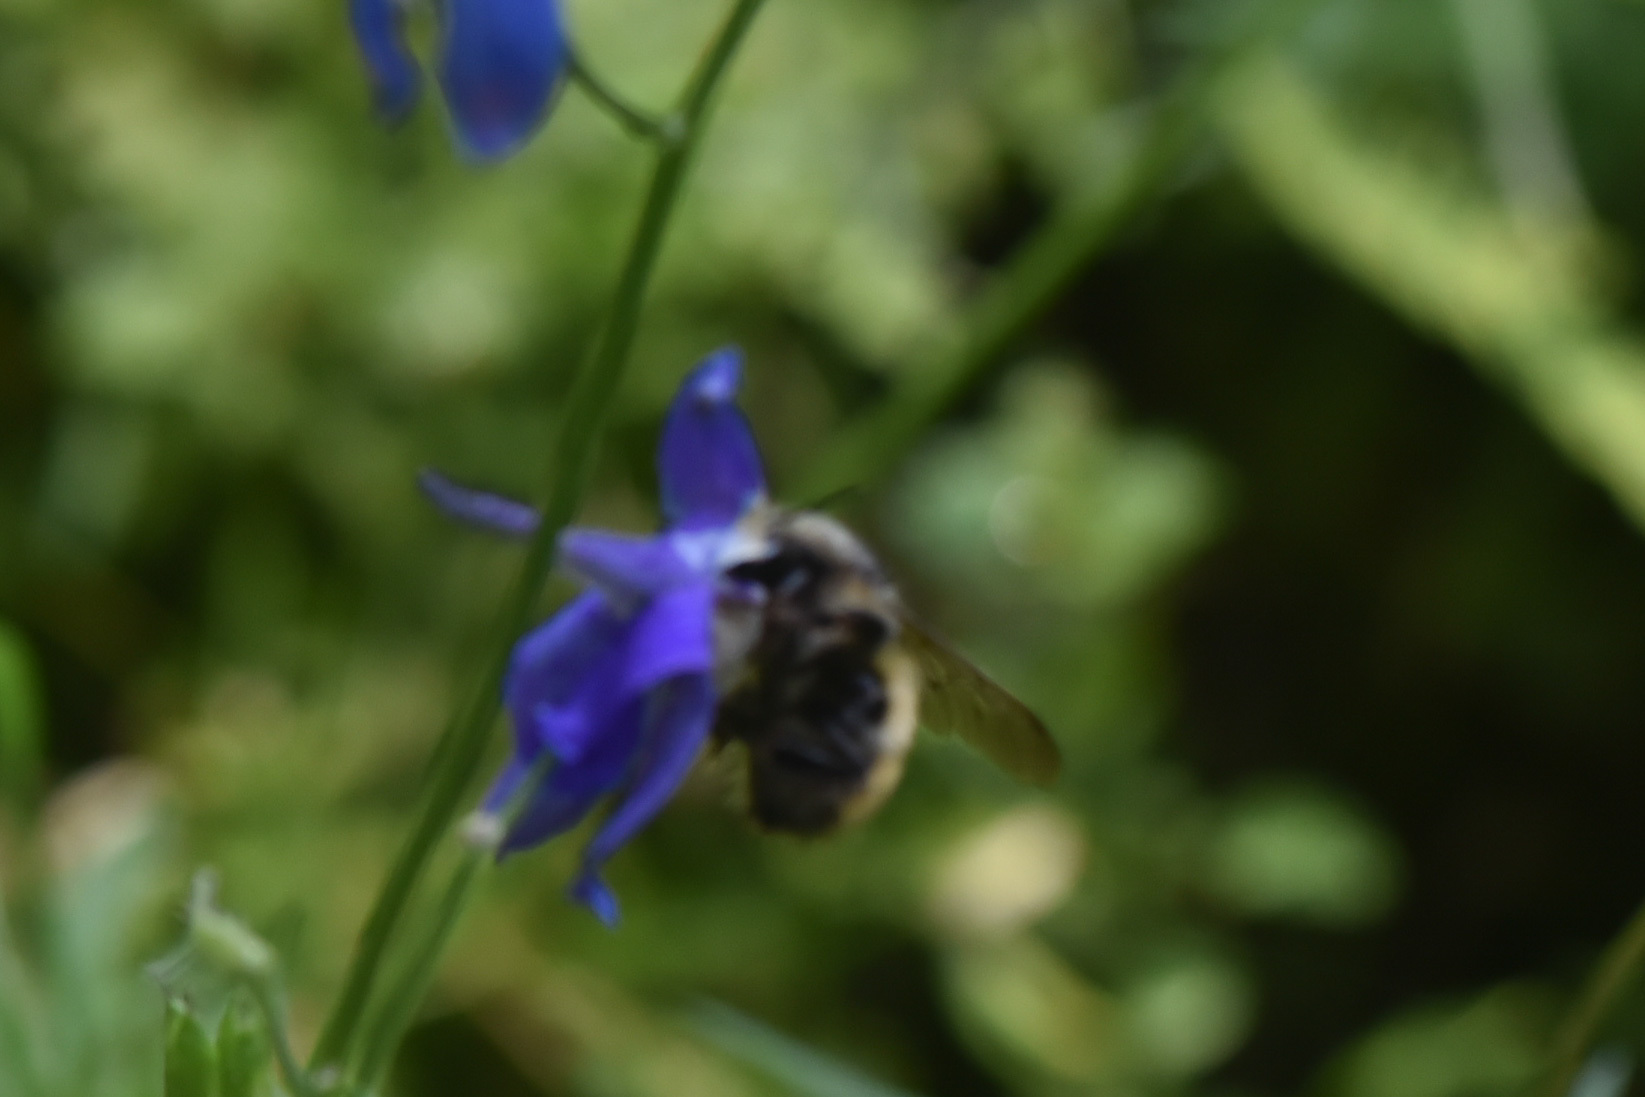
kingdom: Animalia
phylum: Arthropoda
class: Insecta
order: Hymenoptera
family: Apidae
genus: Bombus
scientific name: Bombus flavifrons
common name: Yellow head bumble bee
